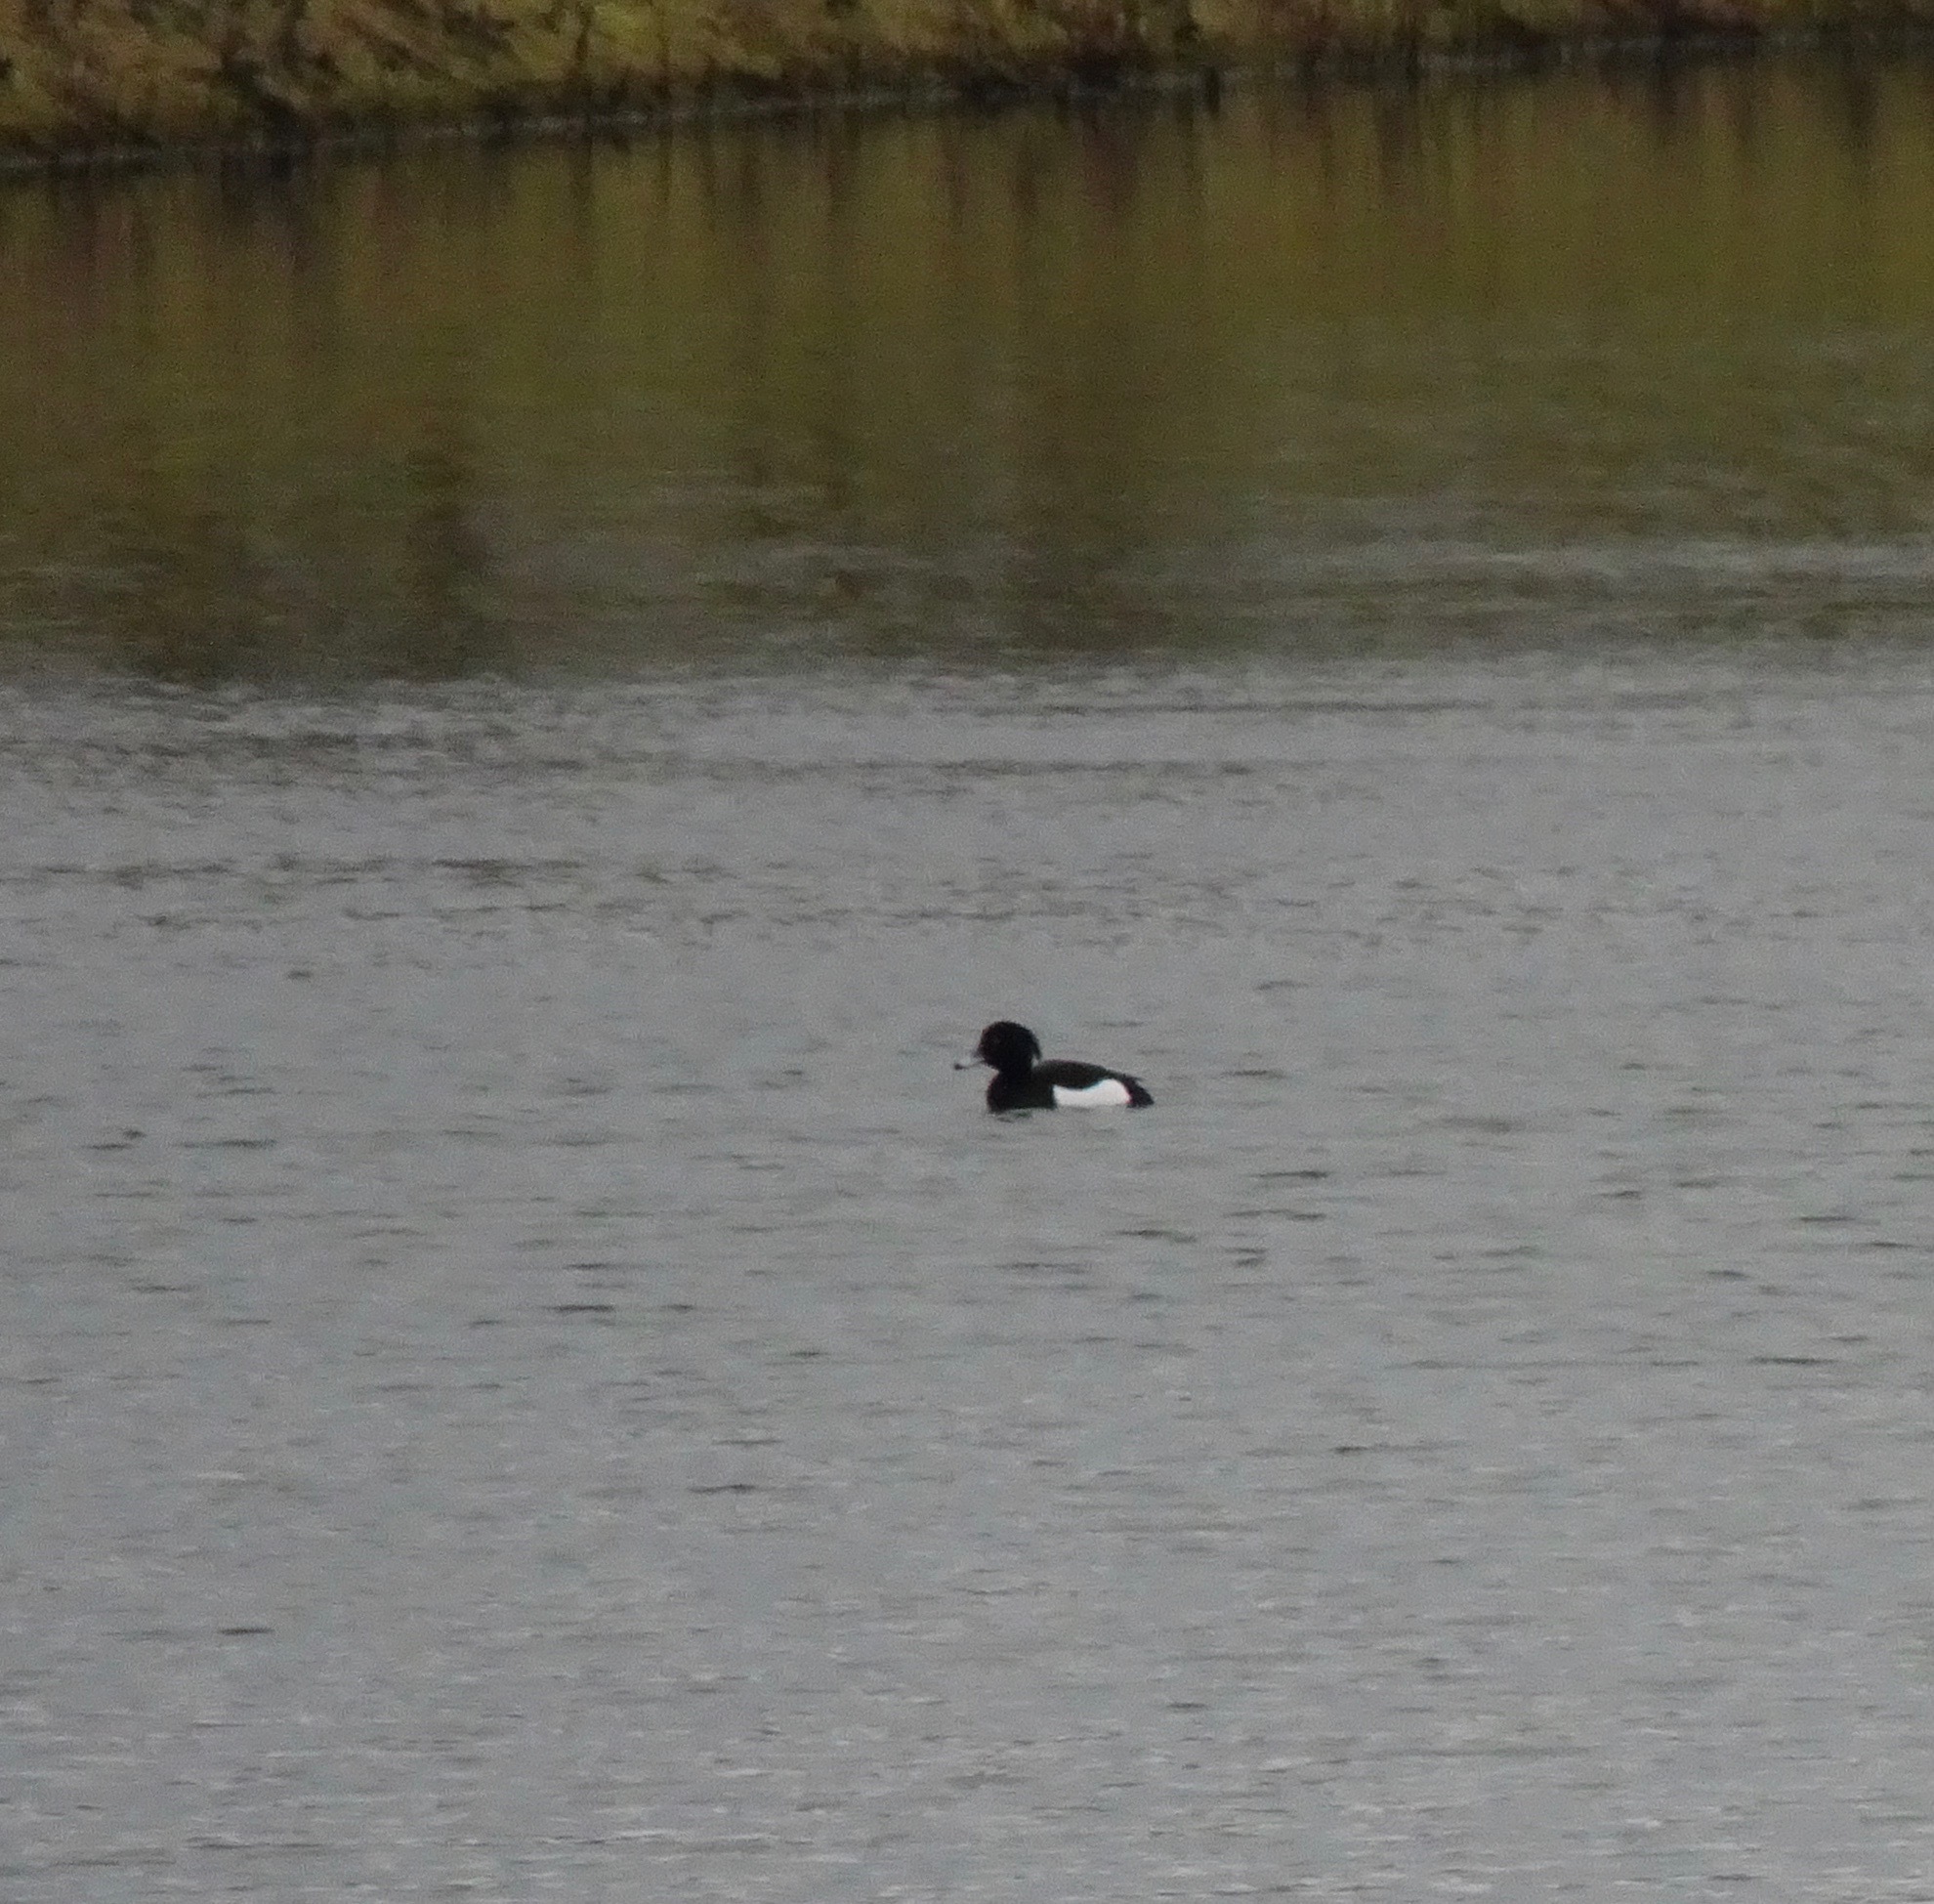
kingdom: Animalia
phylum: Chordata
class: Aves
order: Anseriformes
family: Anatidae
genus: Aythya
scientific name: Aythya fuligula
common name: Tufted duck
